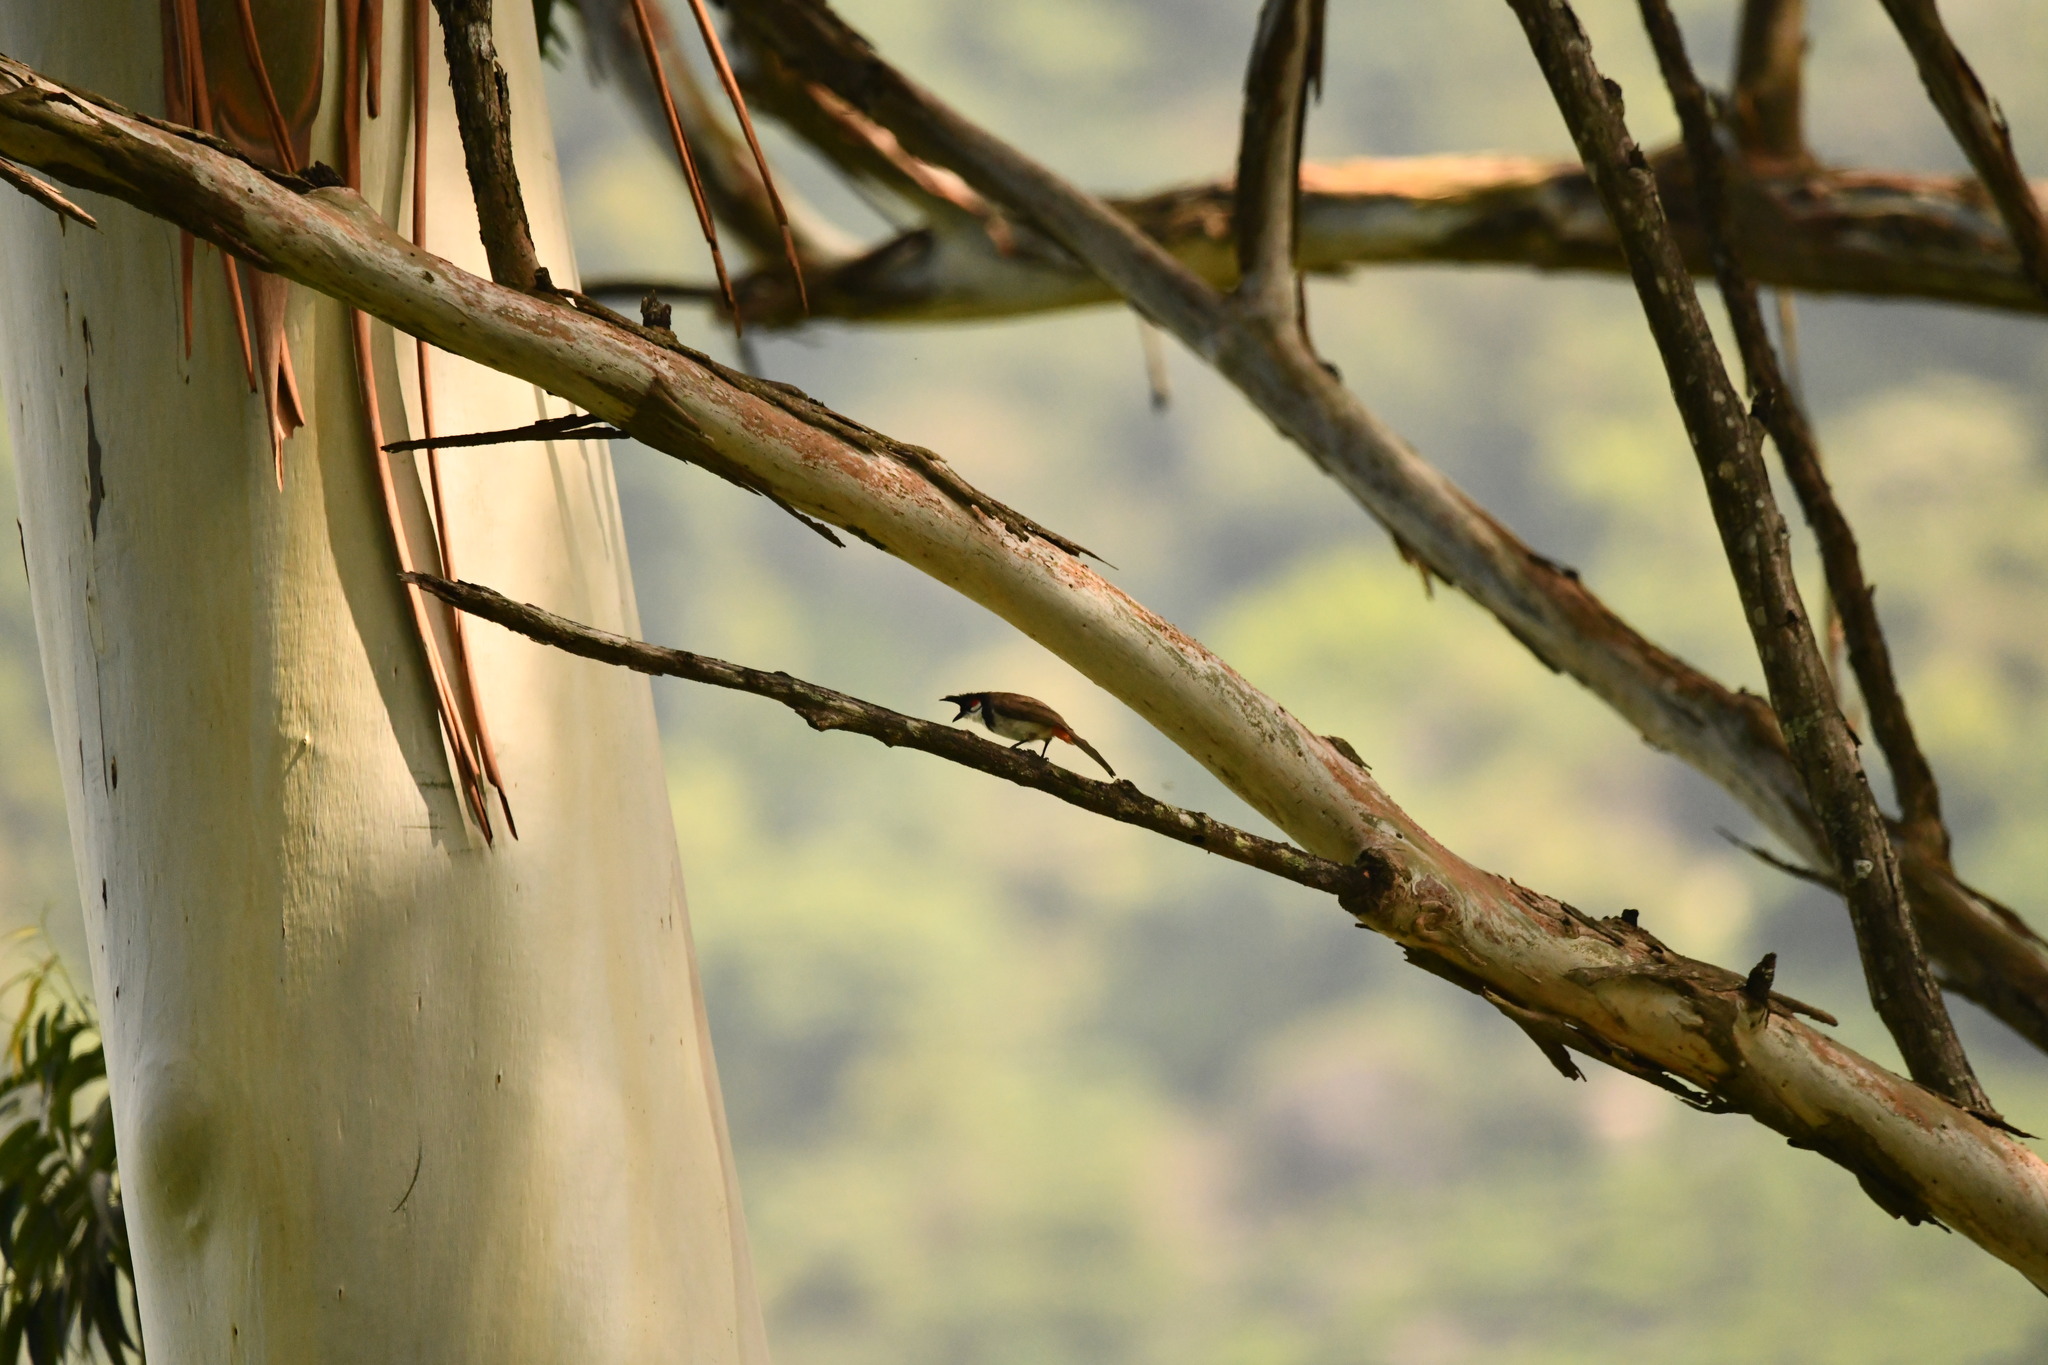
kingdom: Animalia
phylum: Chordata
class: Aves
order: Passeriformes
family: Pycnonotidae
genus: Pycnonotus
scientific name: Pycnonotus jocosus
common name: Red-whiskered bulbul
